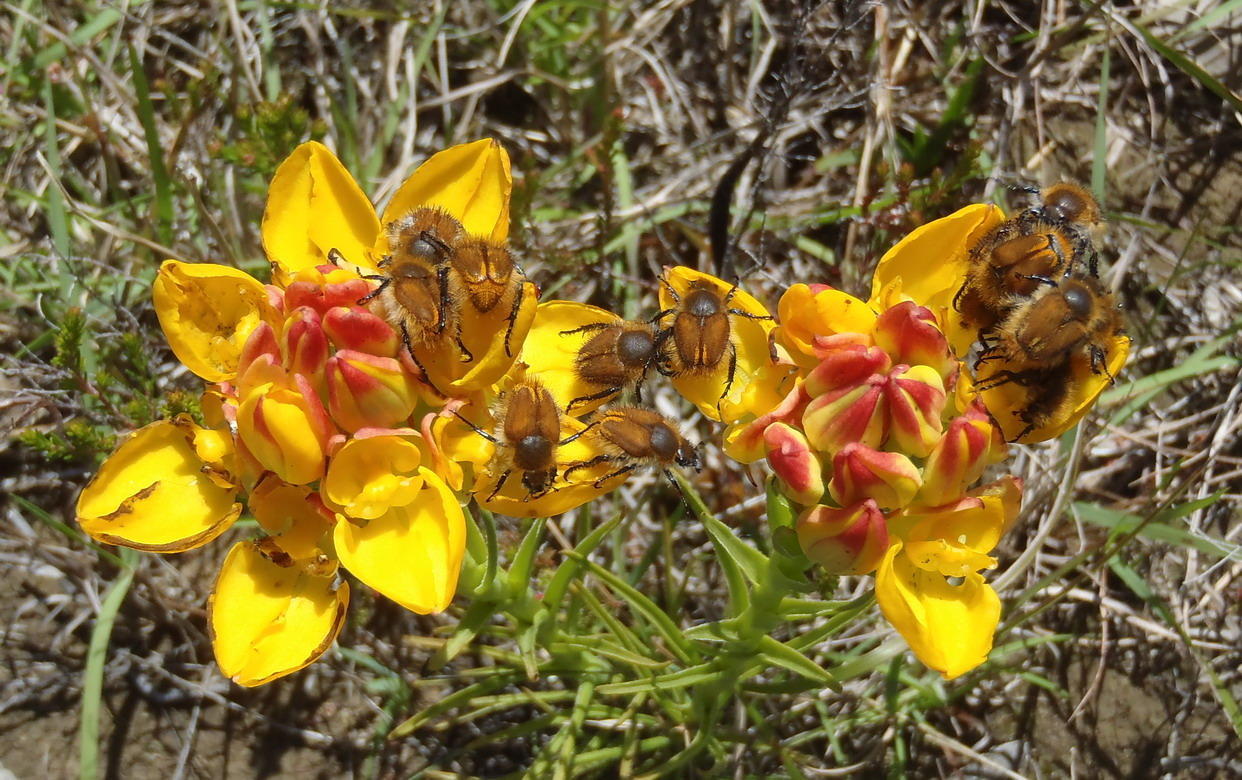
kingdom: Plantae
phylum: Tracheophyta
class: Liliopsida
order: Asparagales
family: Orchidaceae
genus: Ceratandra
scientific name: Ceratandra grandiflora
